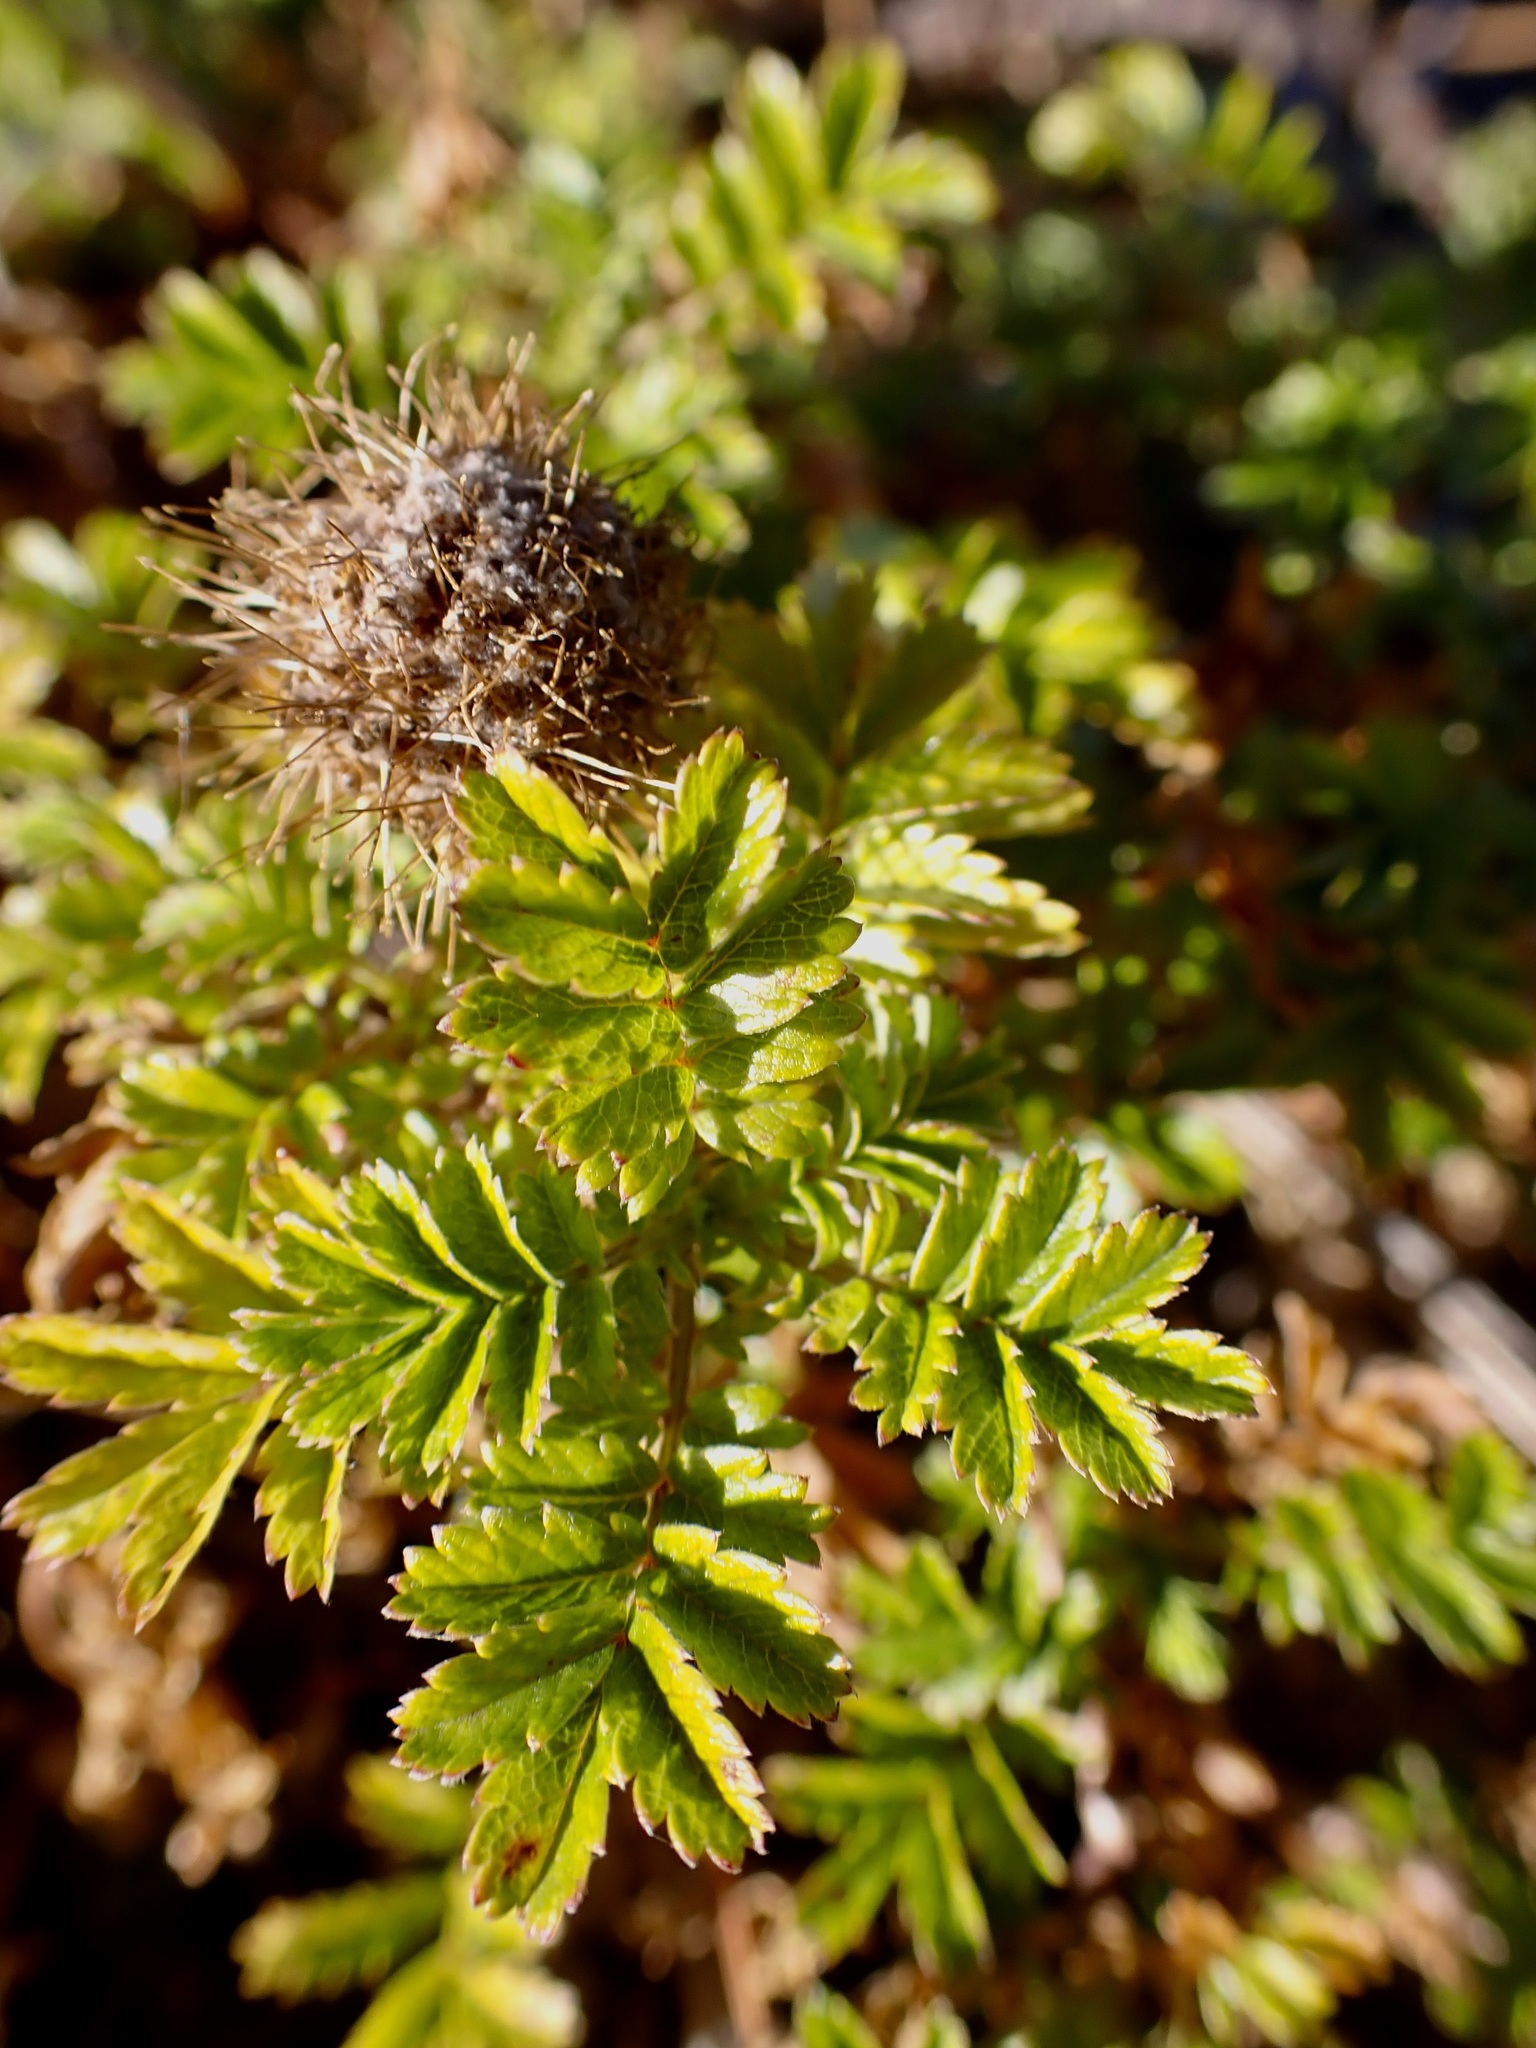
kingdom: Plantae
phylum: Tracheophyta
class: Magnoliopsida
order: Rosales
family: Rosaceae
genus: Acaena
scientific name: Acaena novae-zelandiae
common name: Pirri-pirri-bur
